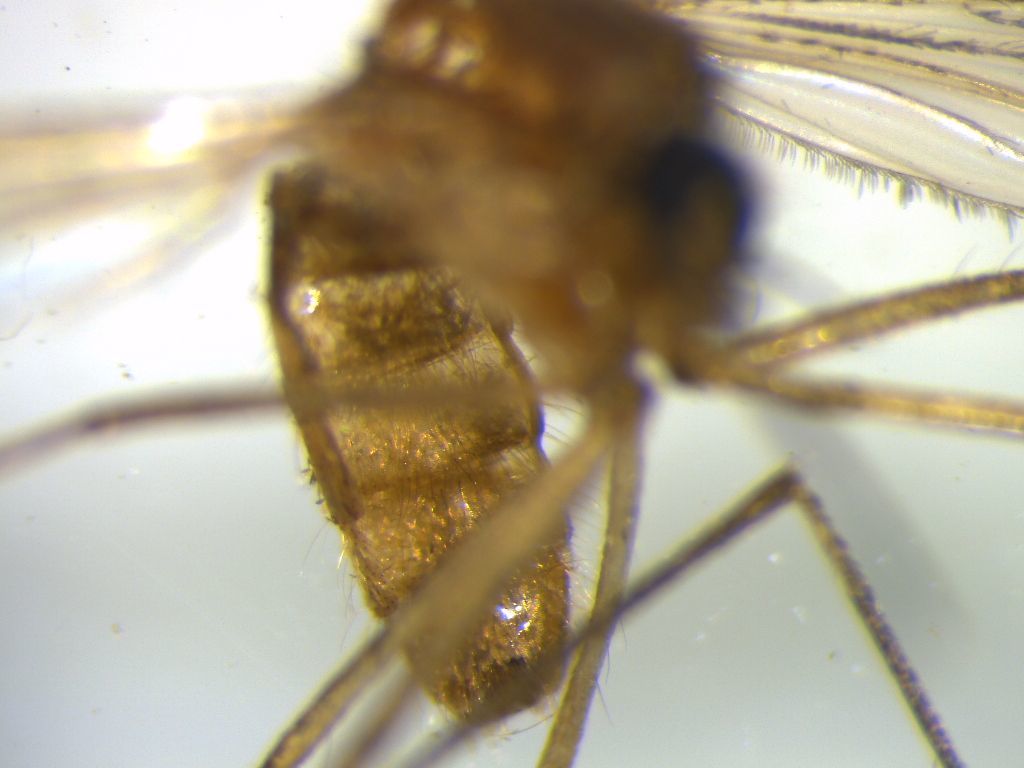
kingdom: Animalia
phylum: Arthropoda
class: Insecta
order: Diptera
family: Culicidae
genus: Culex
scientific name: Culex quinquefasciatus
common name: Southern house mosquito
